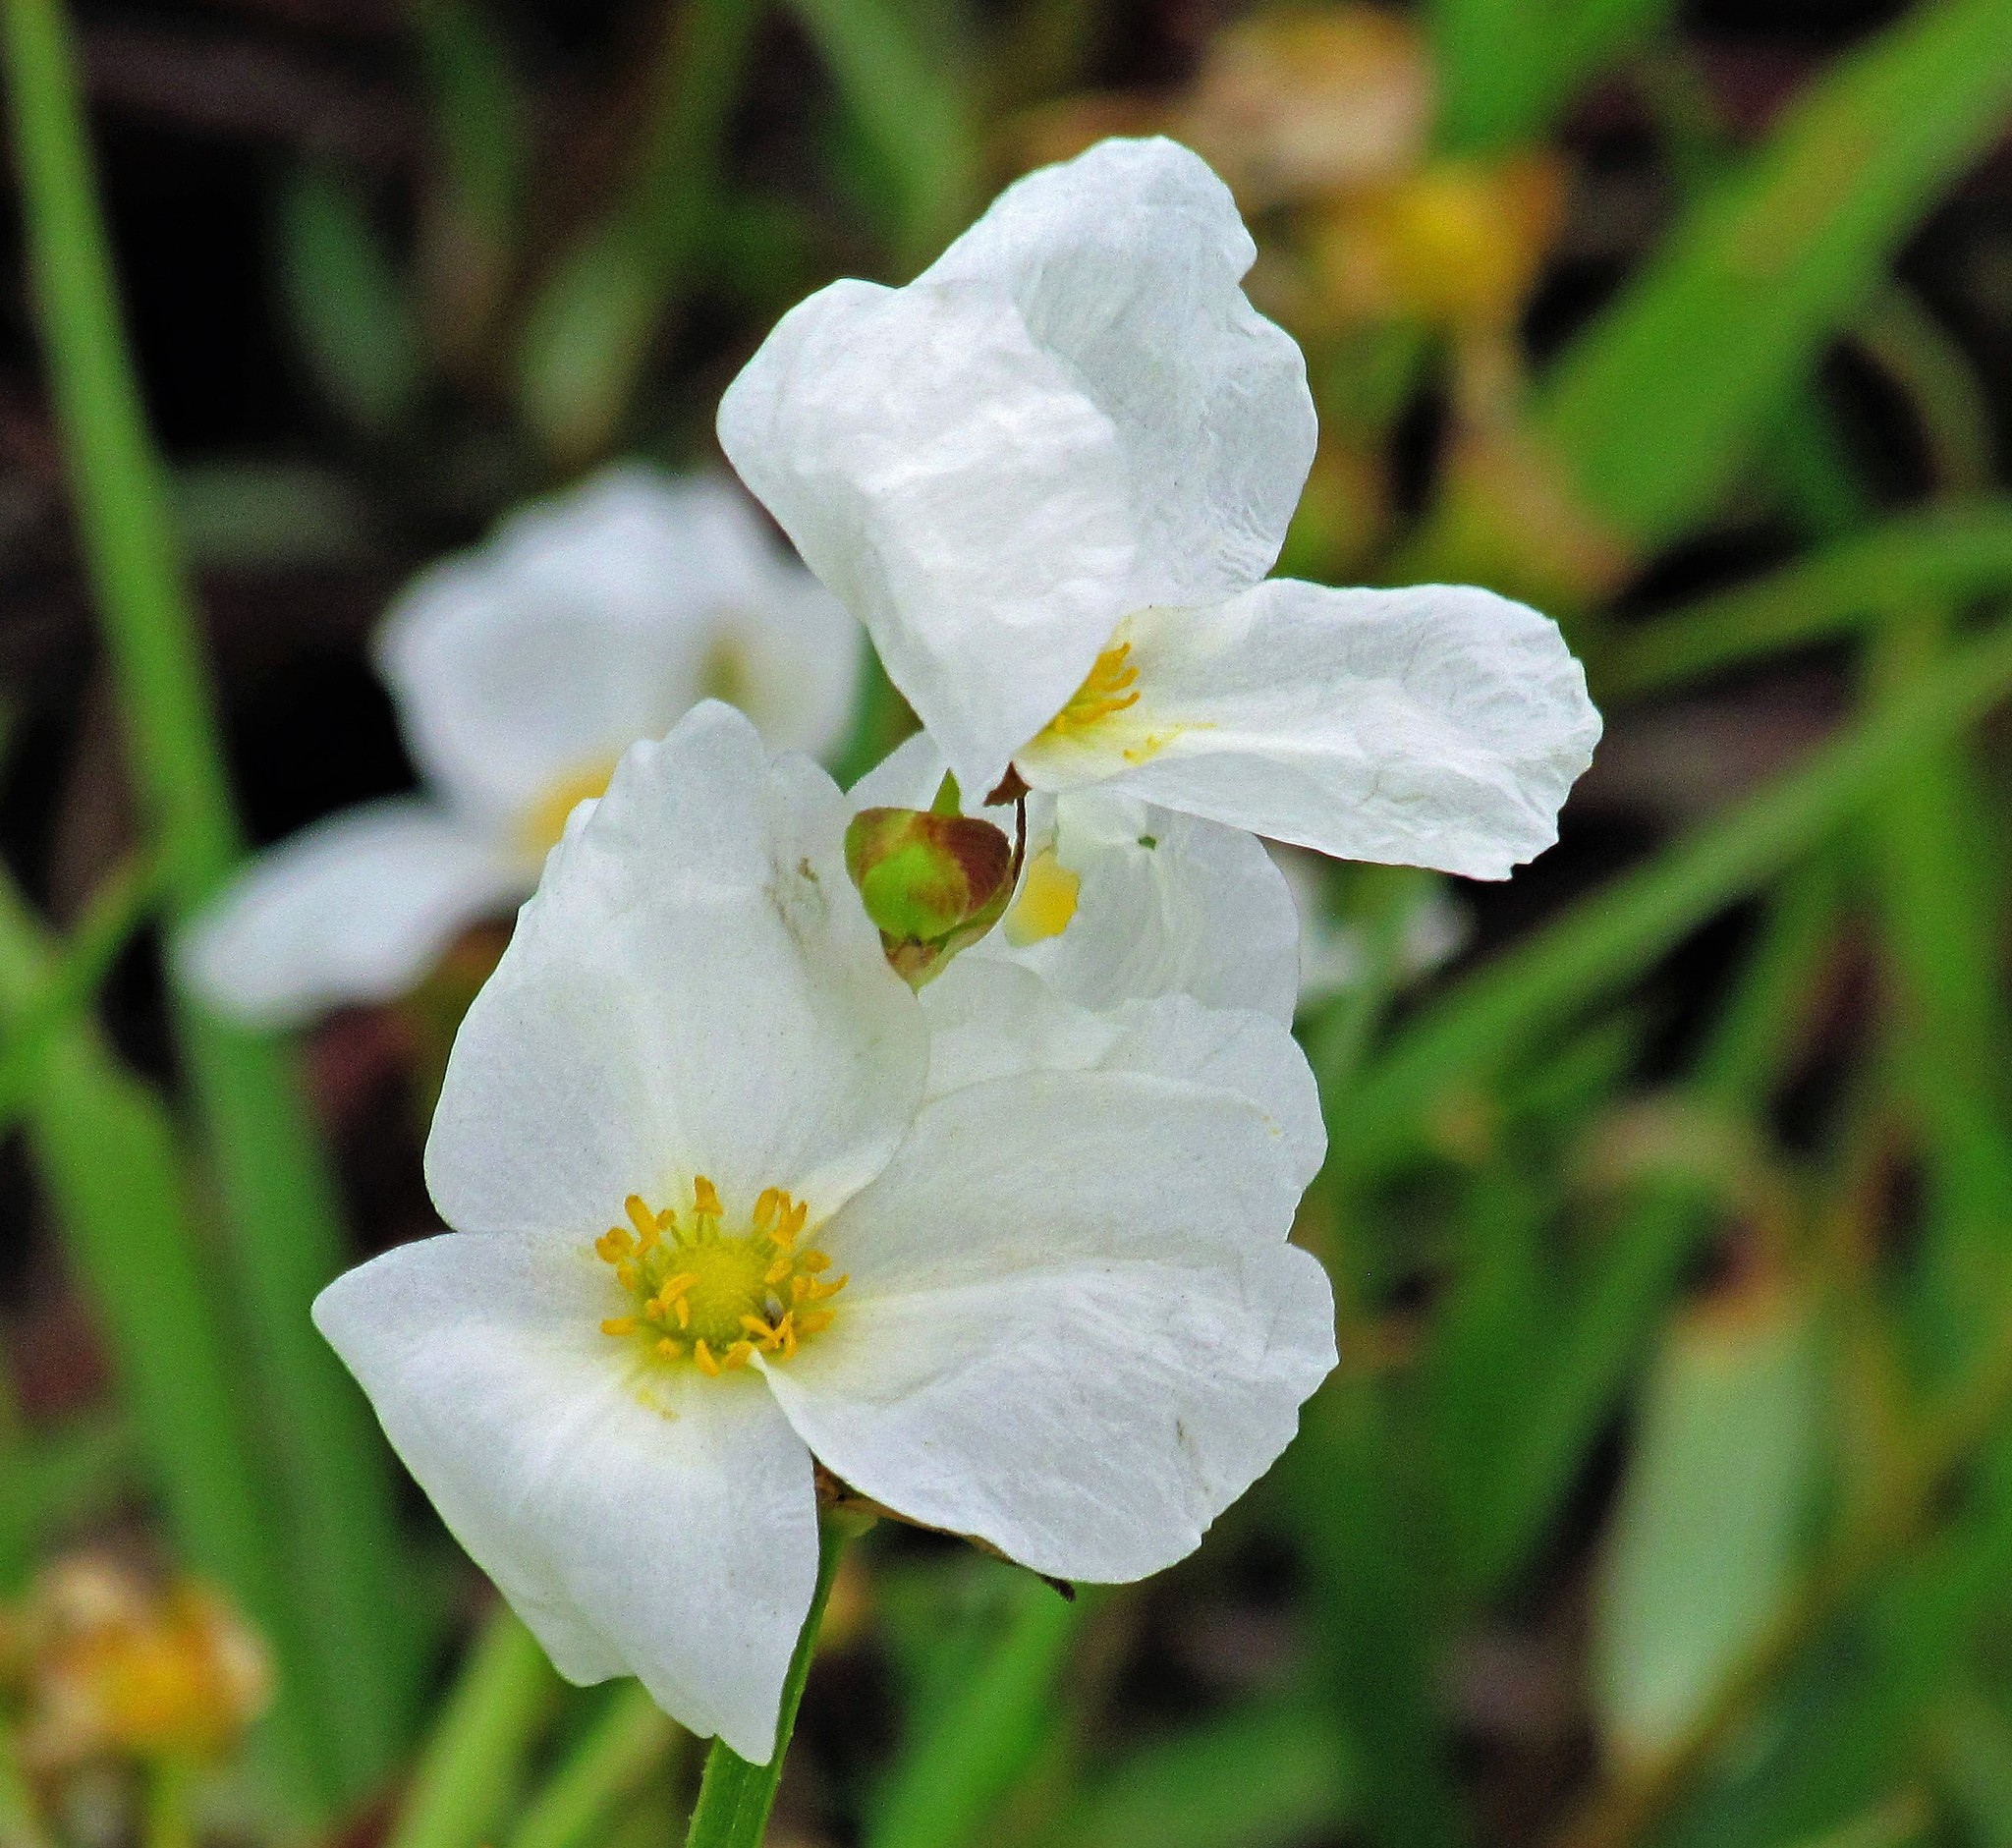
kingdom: Plantae
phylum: Tracheophyta
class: Liliopsida
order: Alismatales
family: Alismataceae
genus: Aquarius
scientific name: Aquarius grandiflorus
